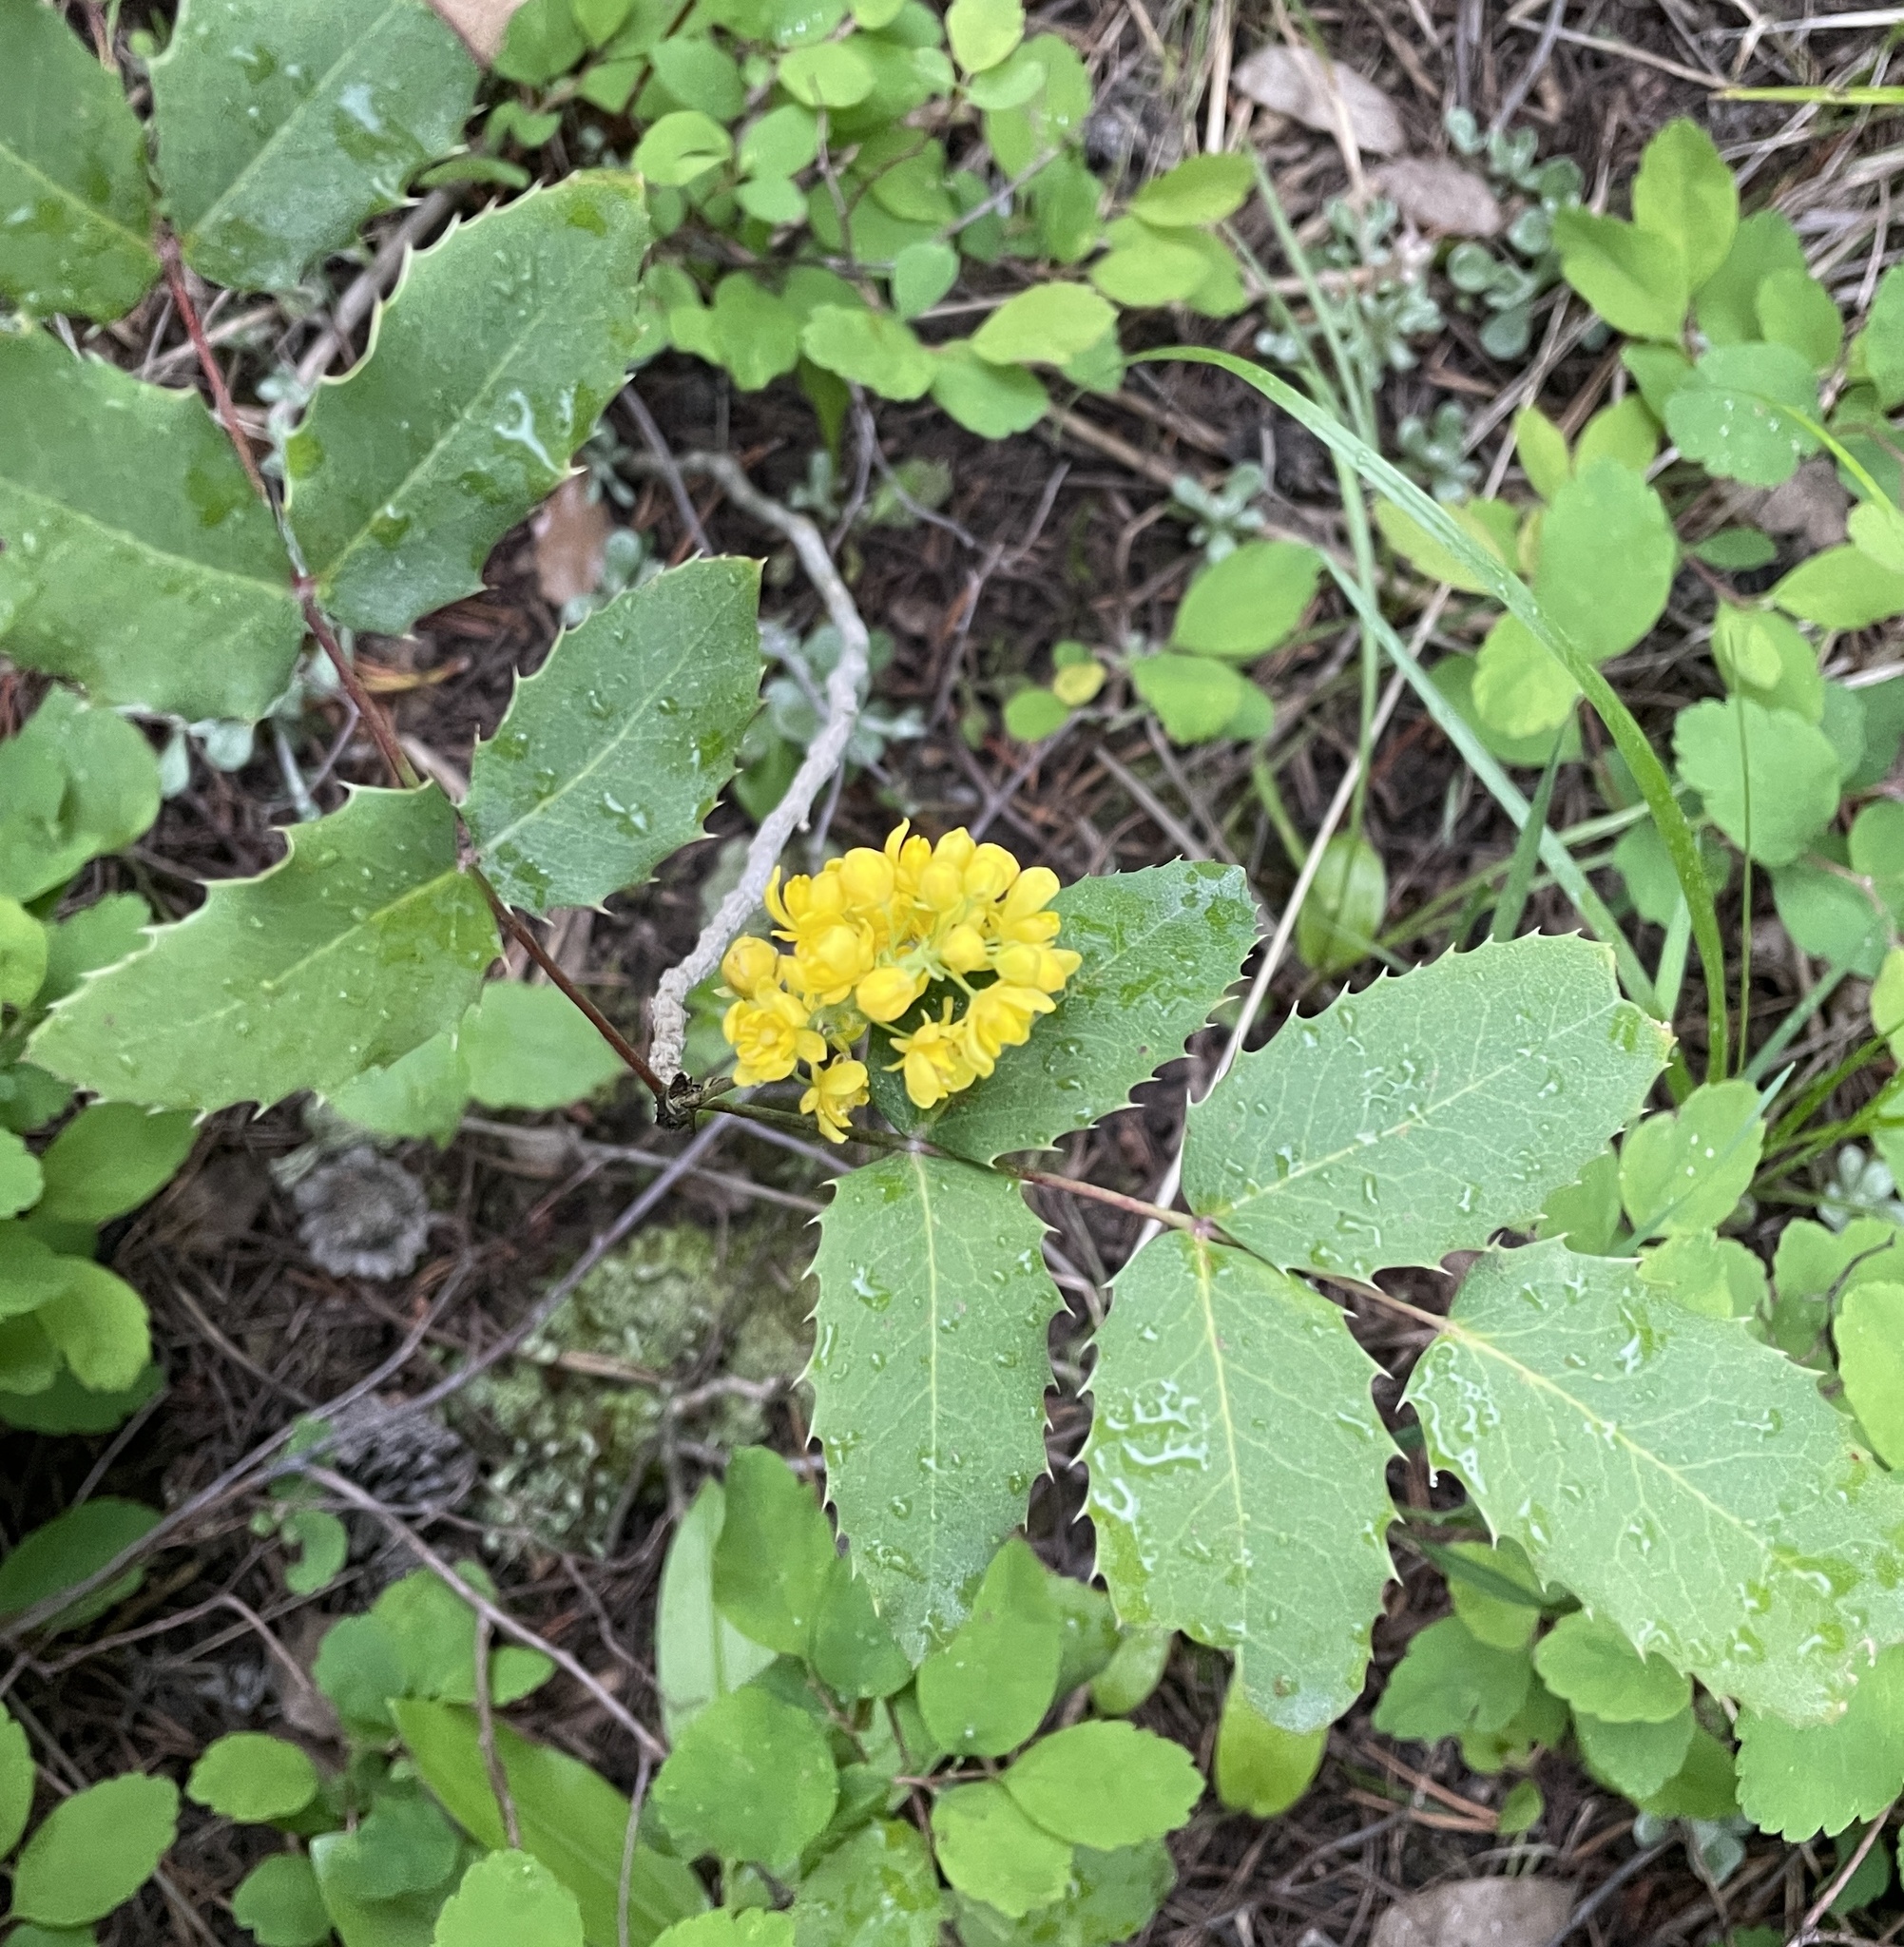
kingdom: Plantae
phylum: Tracheophyta
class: Magnoliopsida
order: Ranunculales
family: Berberidaceae
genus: Mahonia
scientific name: Mahonia repens
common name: Creeping oregon-grape
